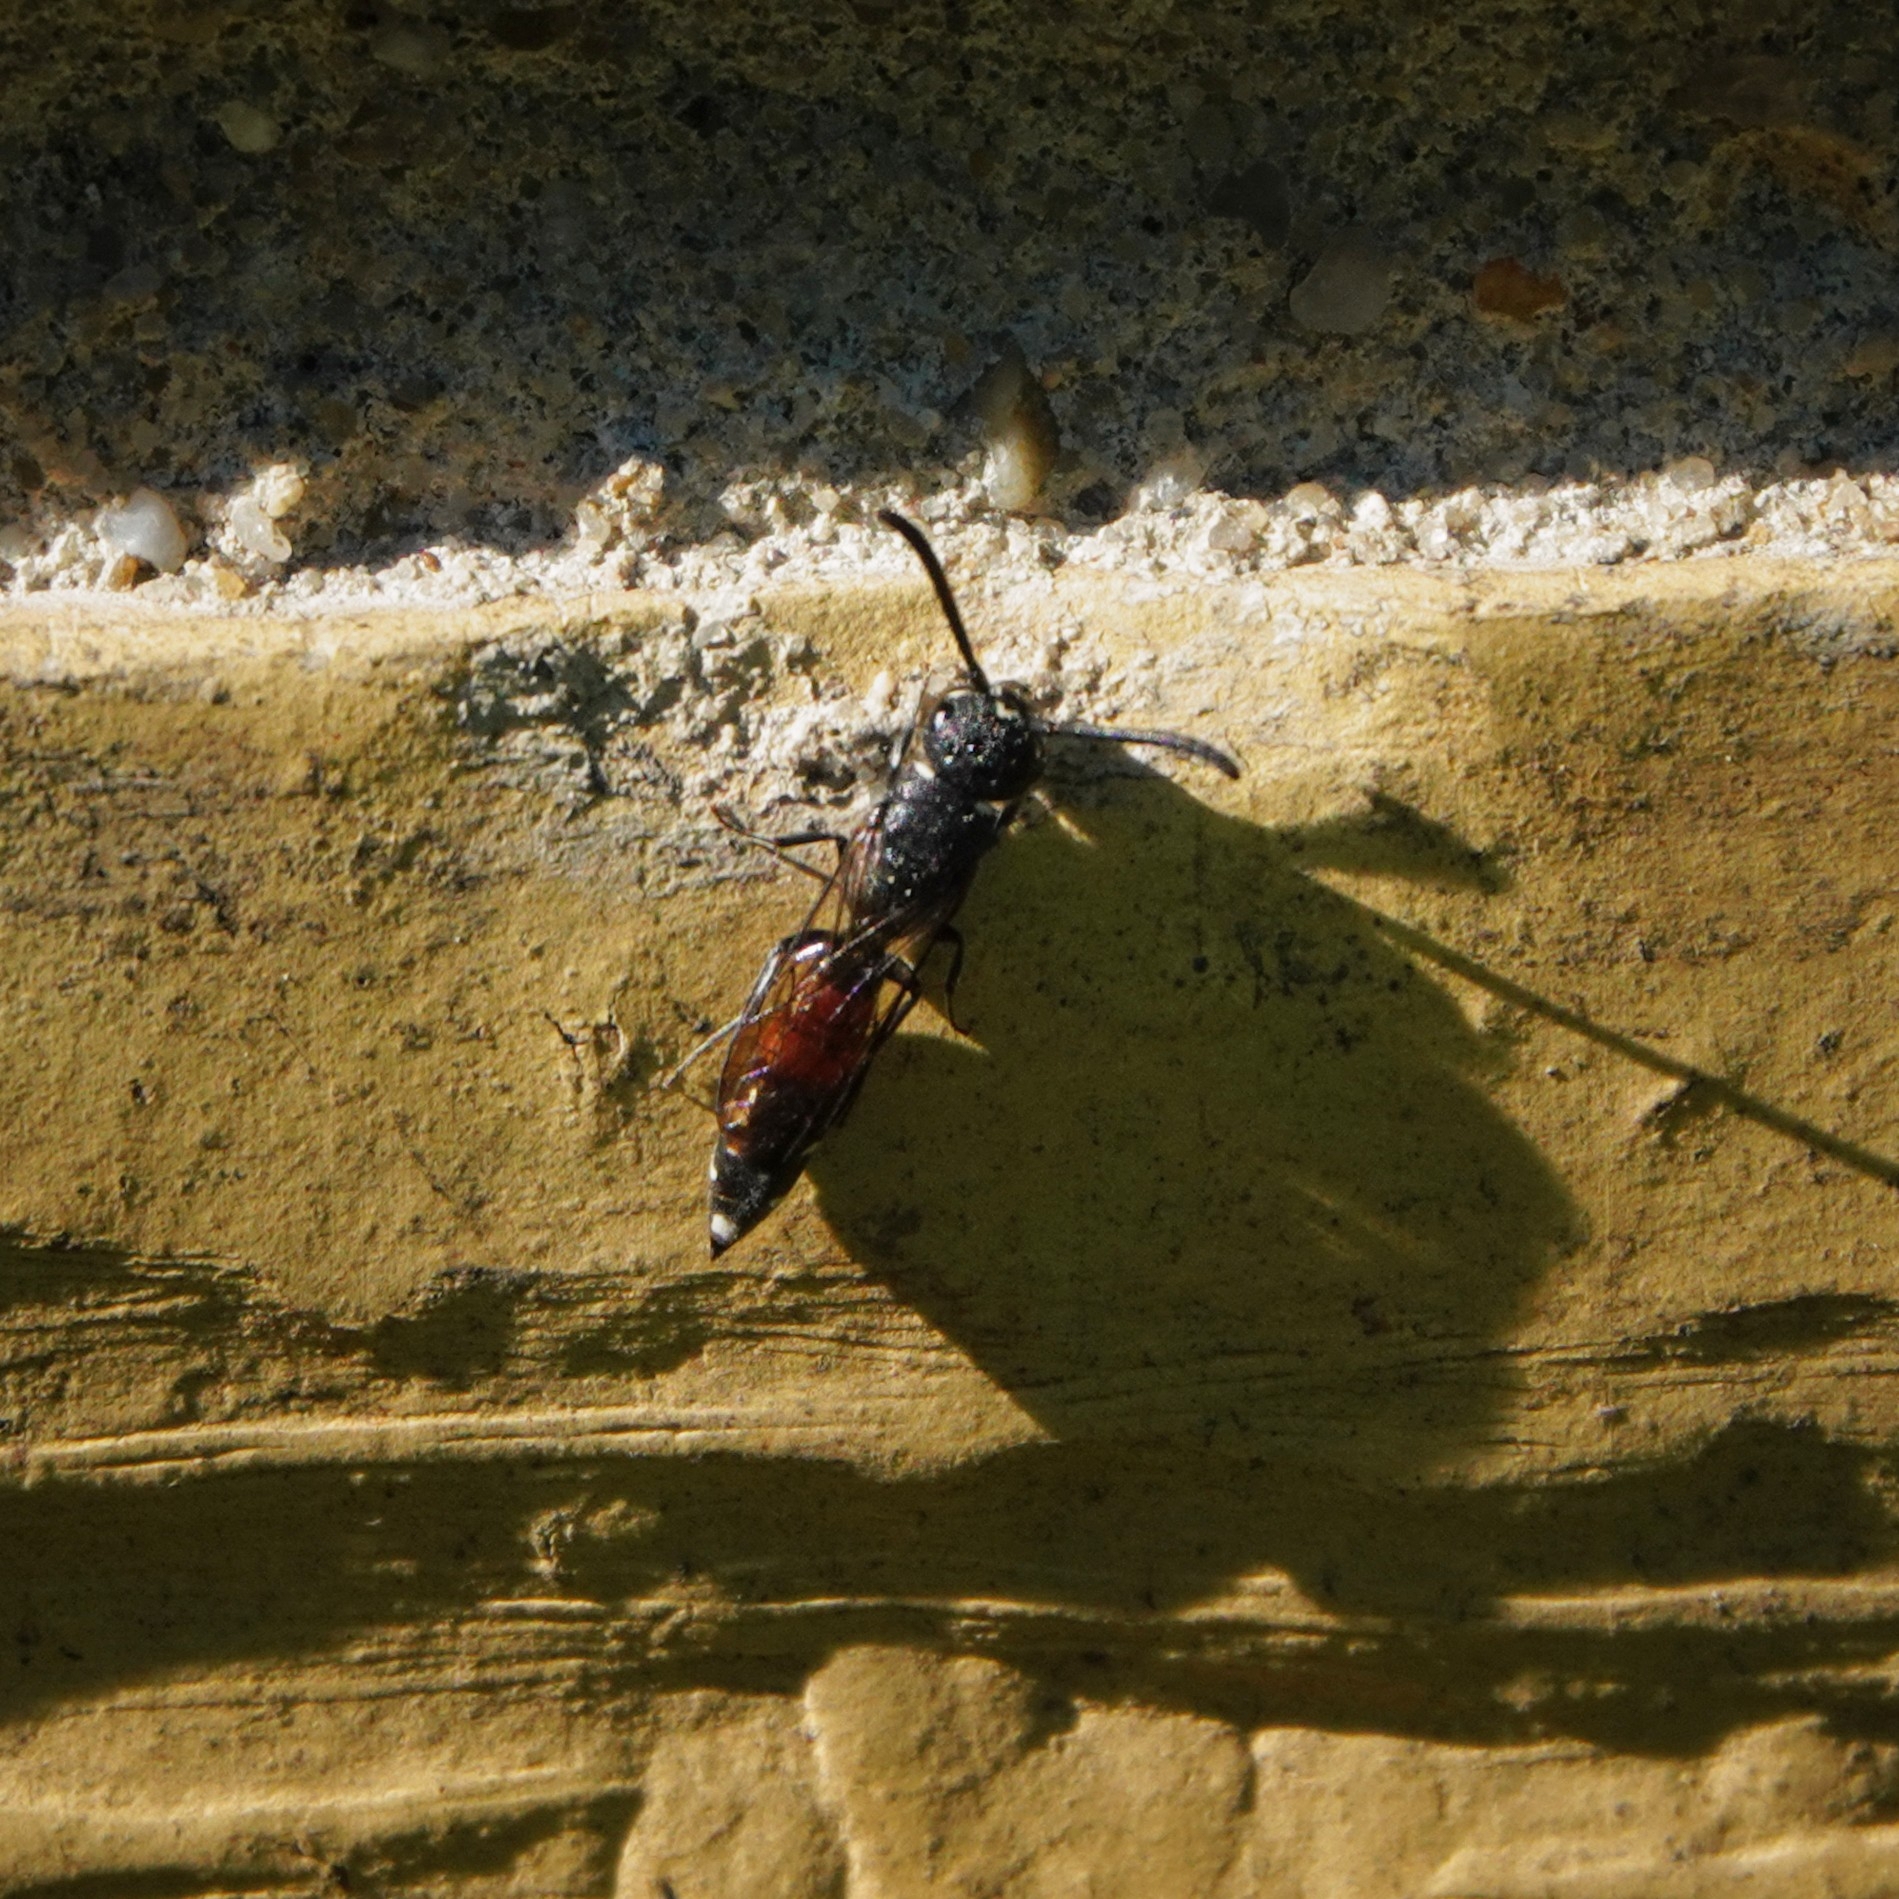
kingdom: Animalia
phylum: Arthropoda
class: Insecta
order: Hymenoptera
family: Sapygidae
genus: Sapyga
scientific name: Sapyga quinquepunctata
